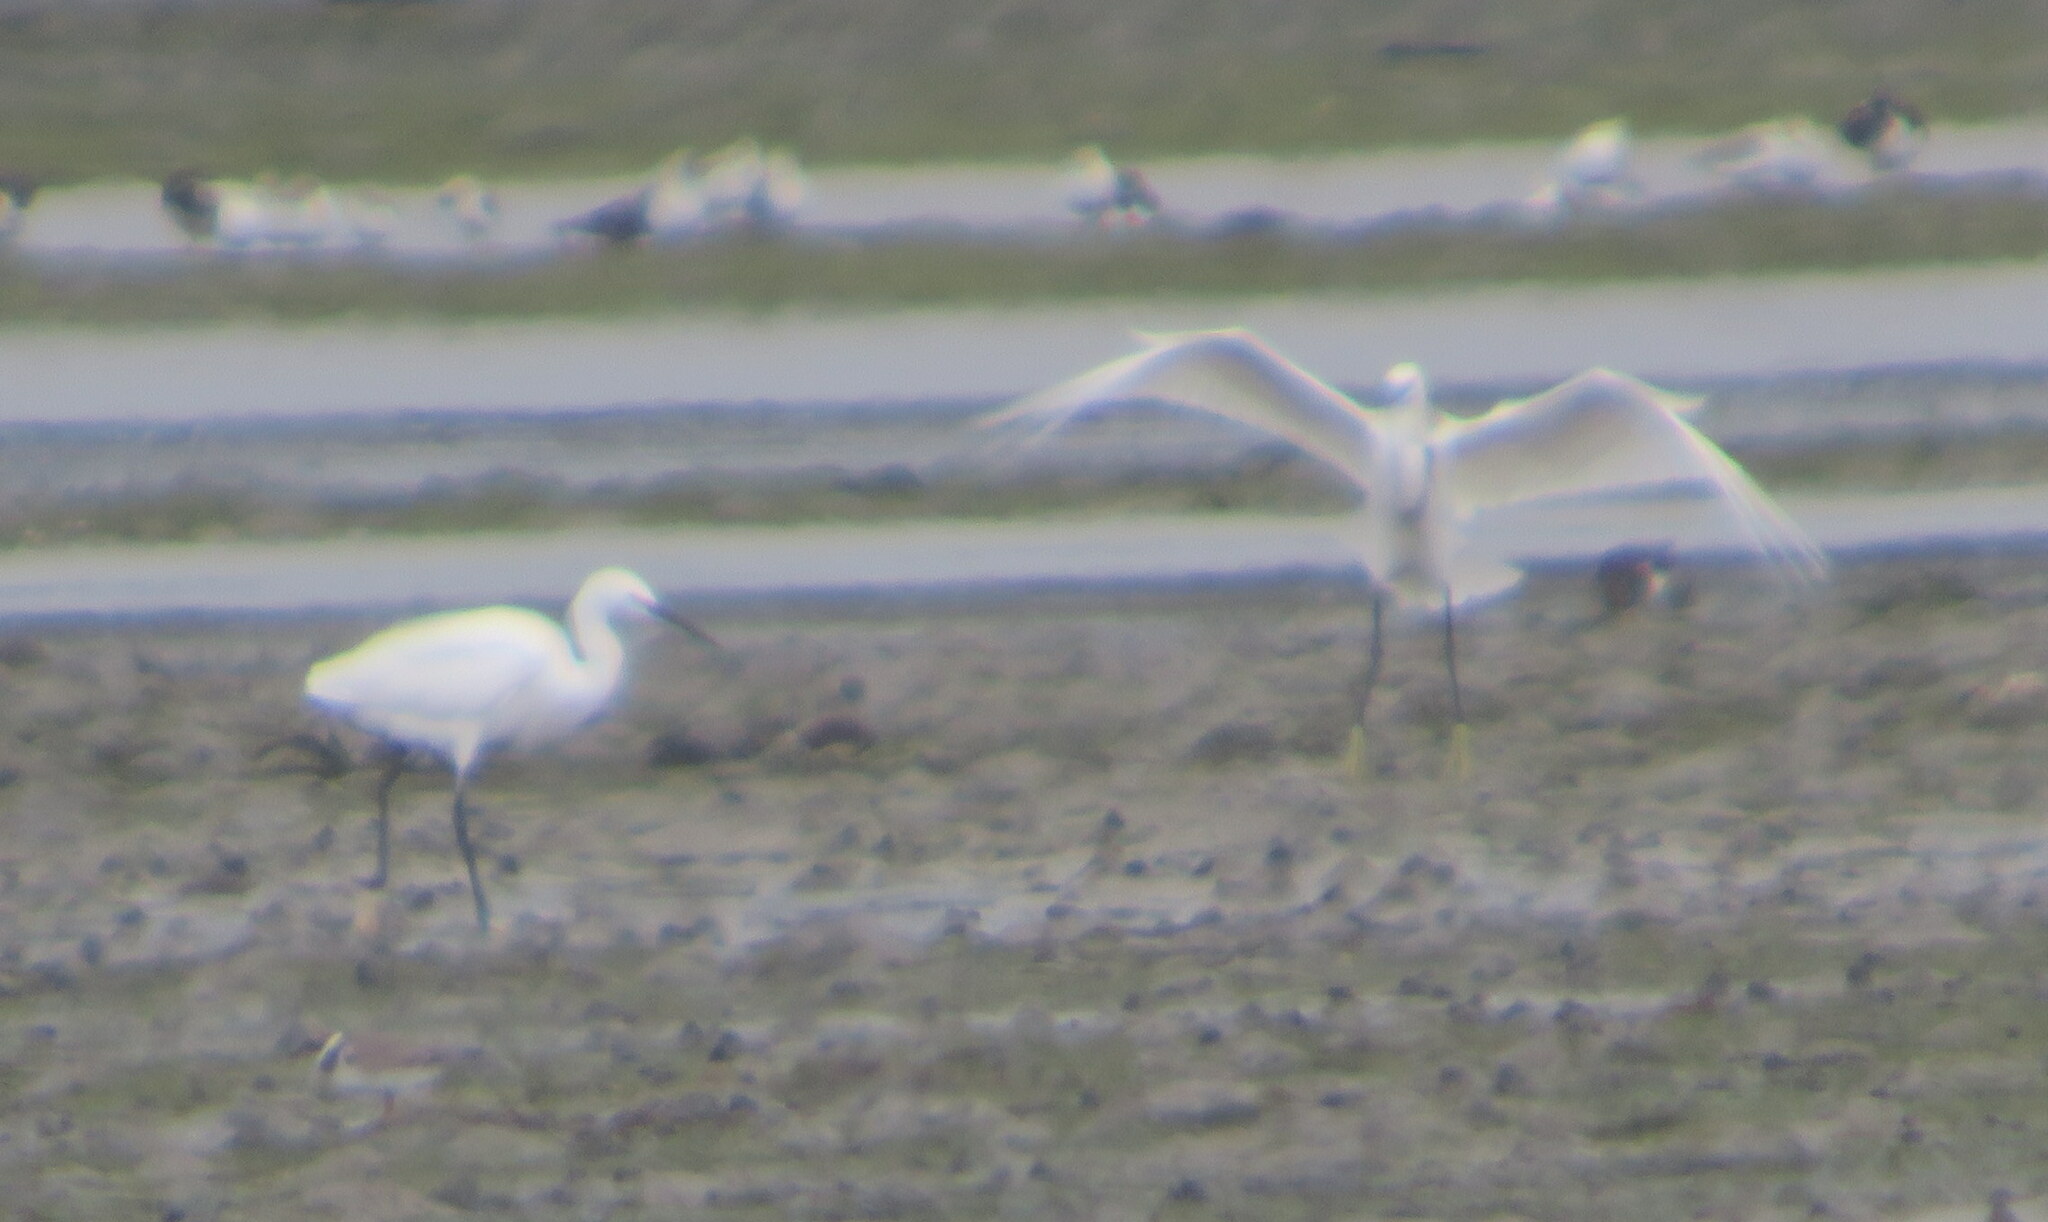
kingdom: Animalia
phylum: Chordata
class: Aves
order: Pelecaniformes
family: Ardeidae
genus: Egretta
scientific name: Egretta garzetta
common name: Little egret
